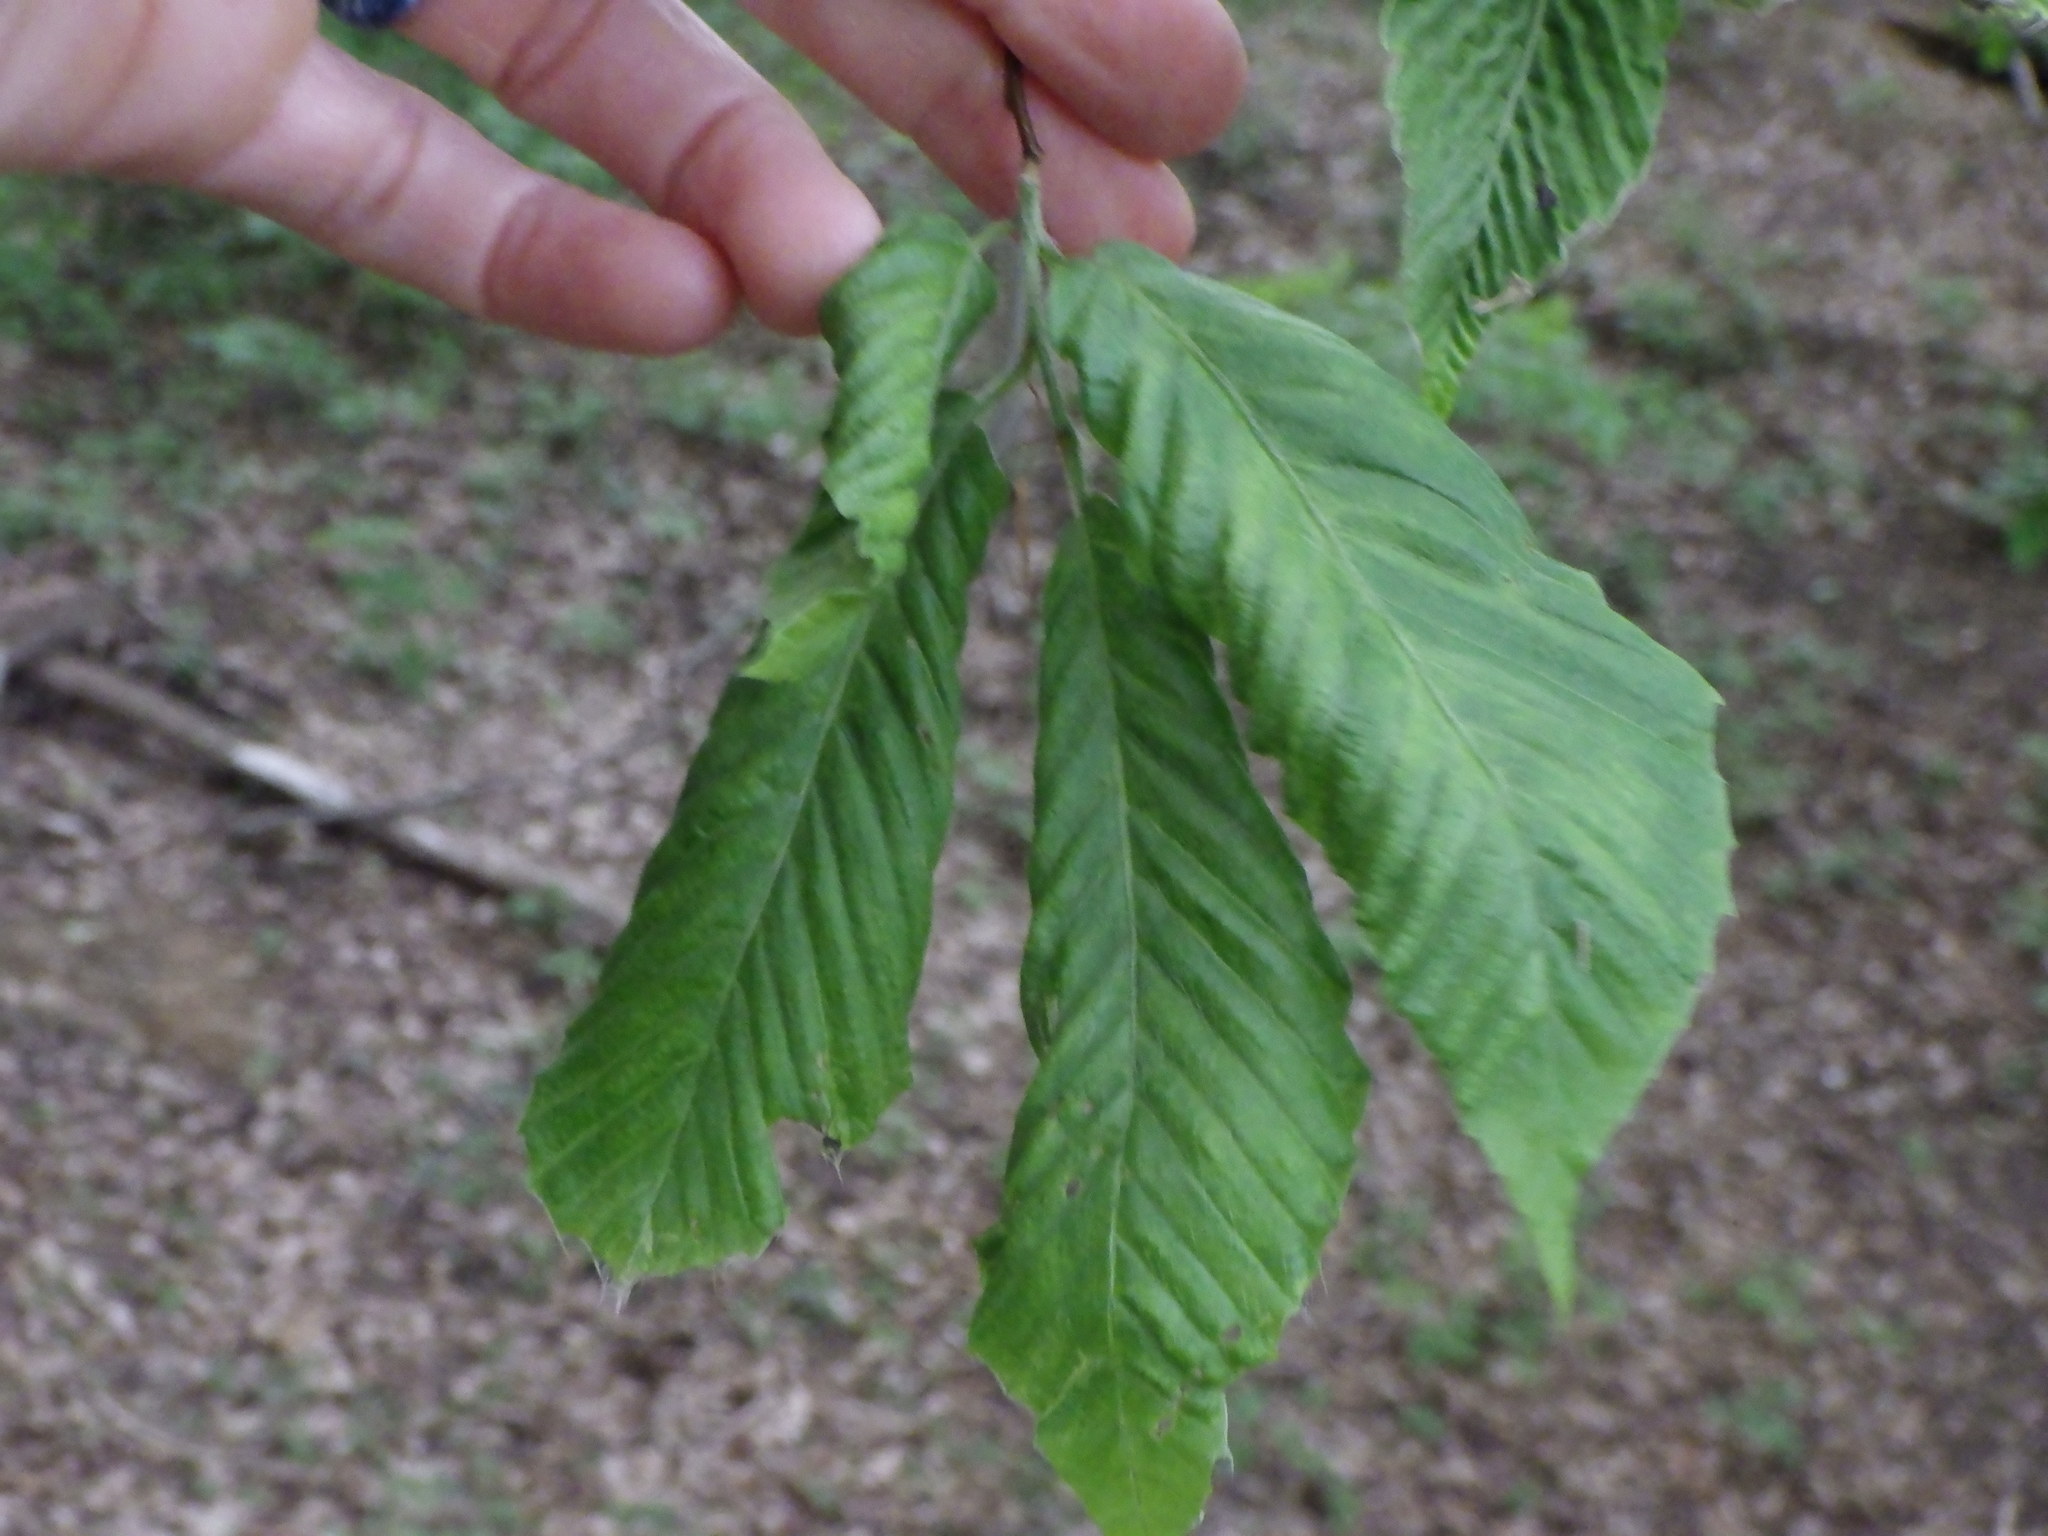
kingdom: Plantae
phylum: Tracheophyta
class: Magnoliopsida
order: Fagales
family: Fagaceae
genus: Fagus
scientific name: Fagus grandifolia
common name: American beech
